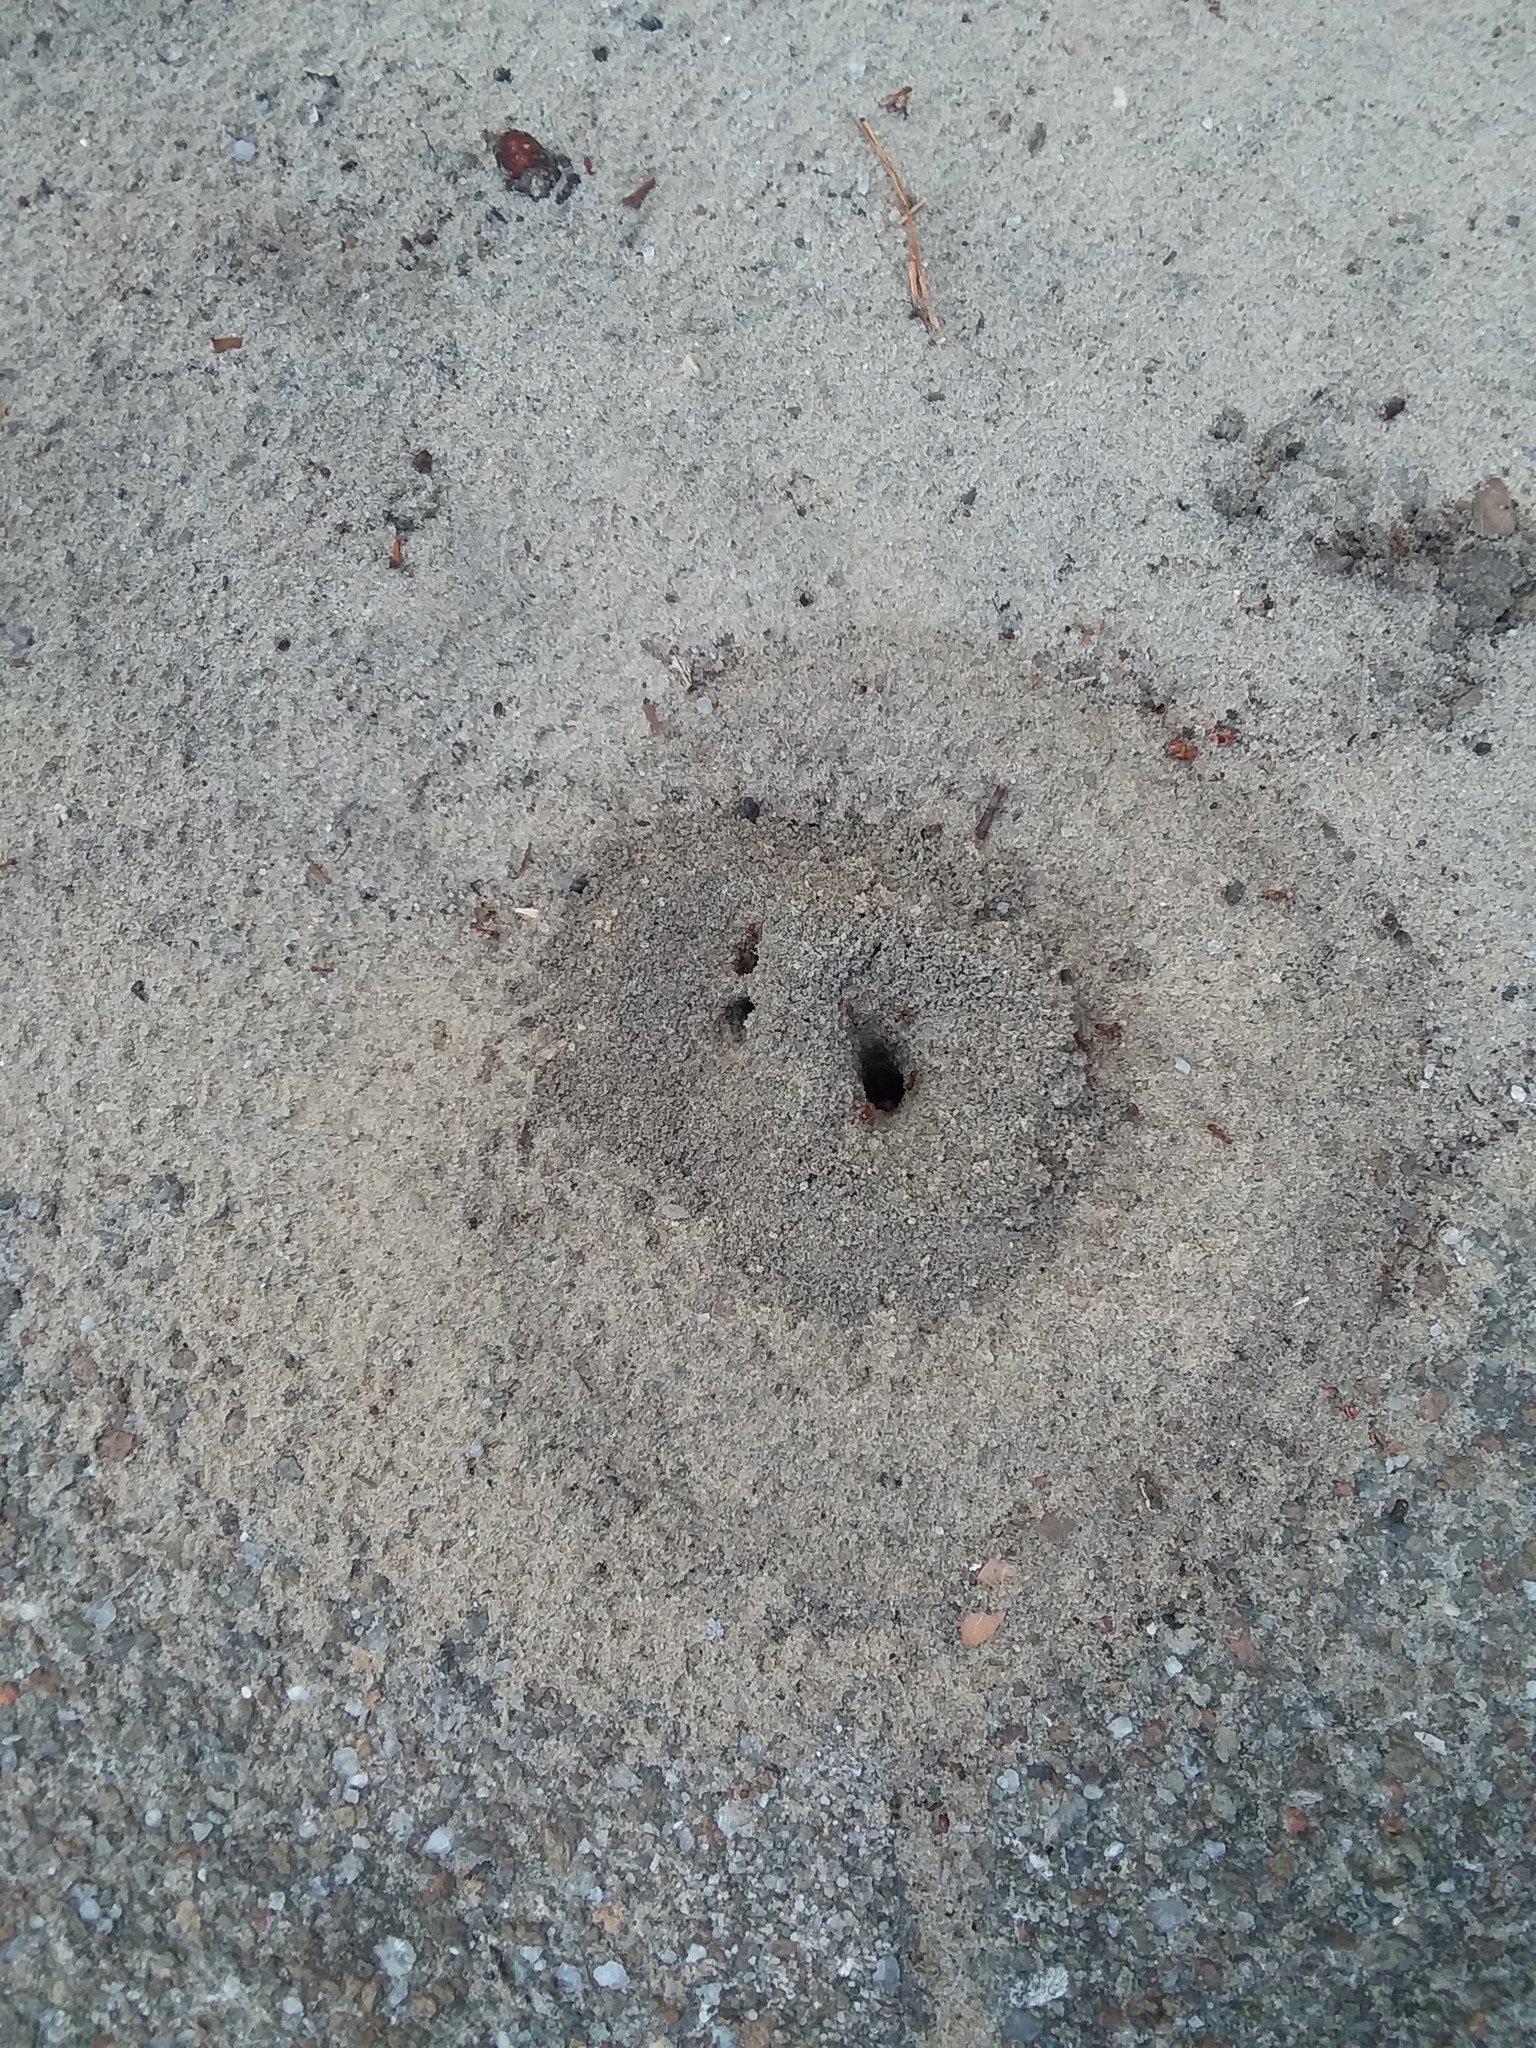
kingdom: Animalia
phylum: Arthropoda
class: Insecta
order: Hymenoptera
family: Formicidae
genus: Dorymyrmex
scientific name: Dorymyrmex bureni
